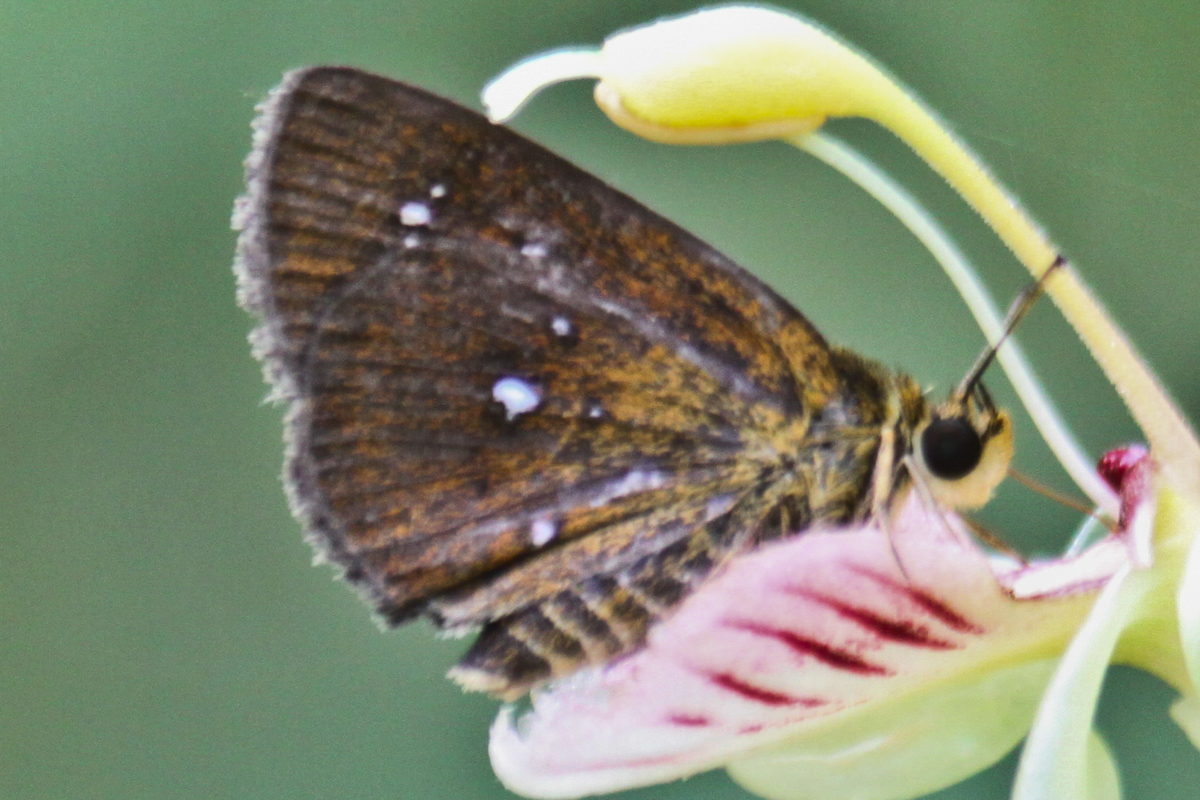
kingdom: Animalia
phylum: Arthropoda
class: Insecta
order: Lepidoptera
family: Hesperiidae
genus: Iambrix
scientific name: Iambrix salsala
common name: Chestnut bob
